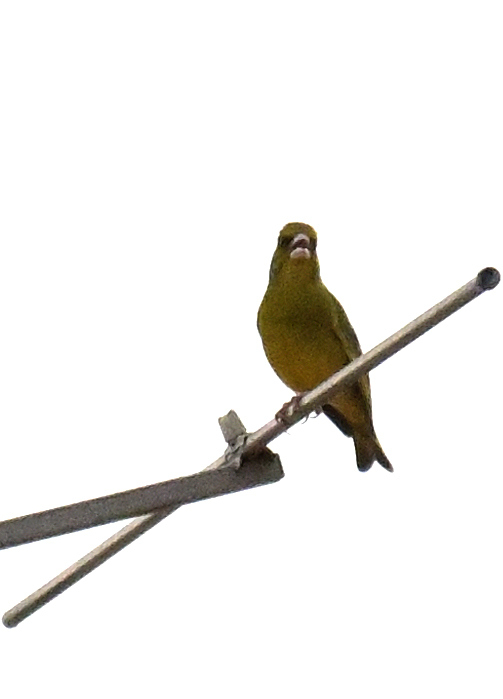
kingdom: Plantae
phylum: Tracheophyta
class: Liliopsida
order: Poales
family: Poaceae
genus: Chloris
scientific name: Chloris chloris
